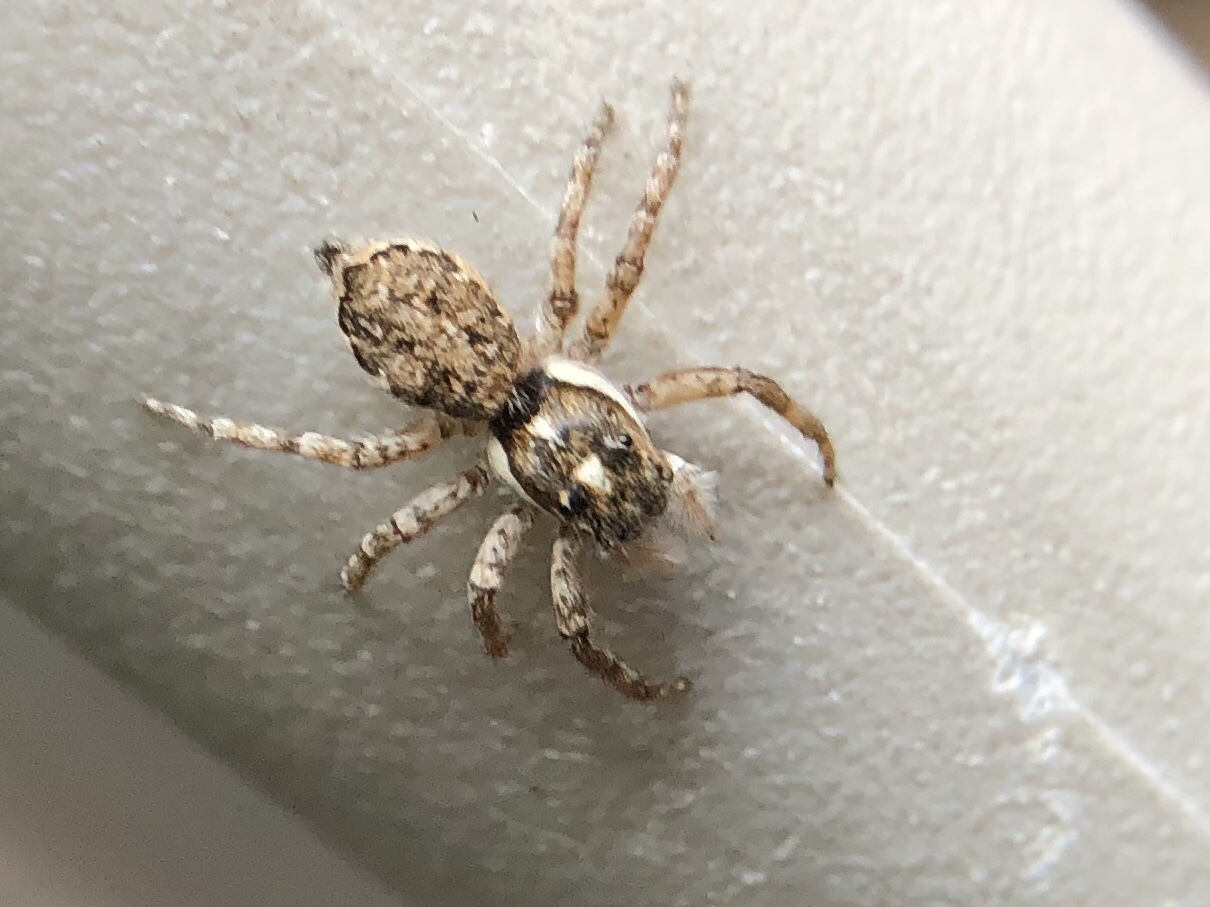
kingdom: Animalia
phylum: Arthropoda
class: Arachnida
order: Araneae
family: Salticidae
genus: Menemerus
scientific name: Menemerus semilimbatus
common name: Jumping spider
